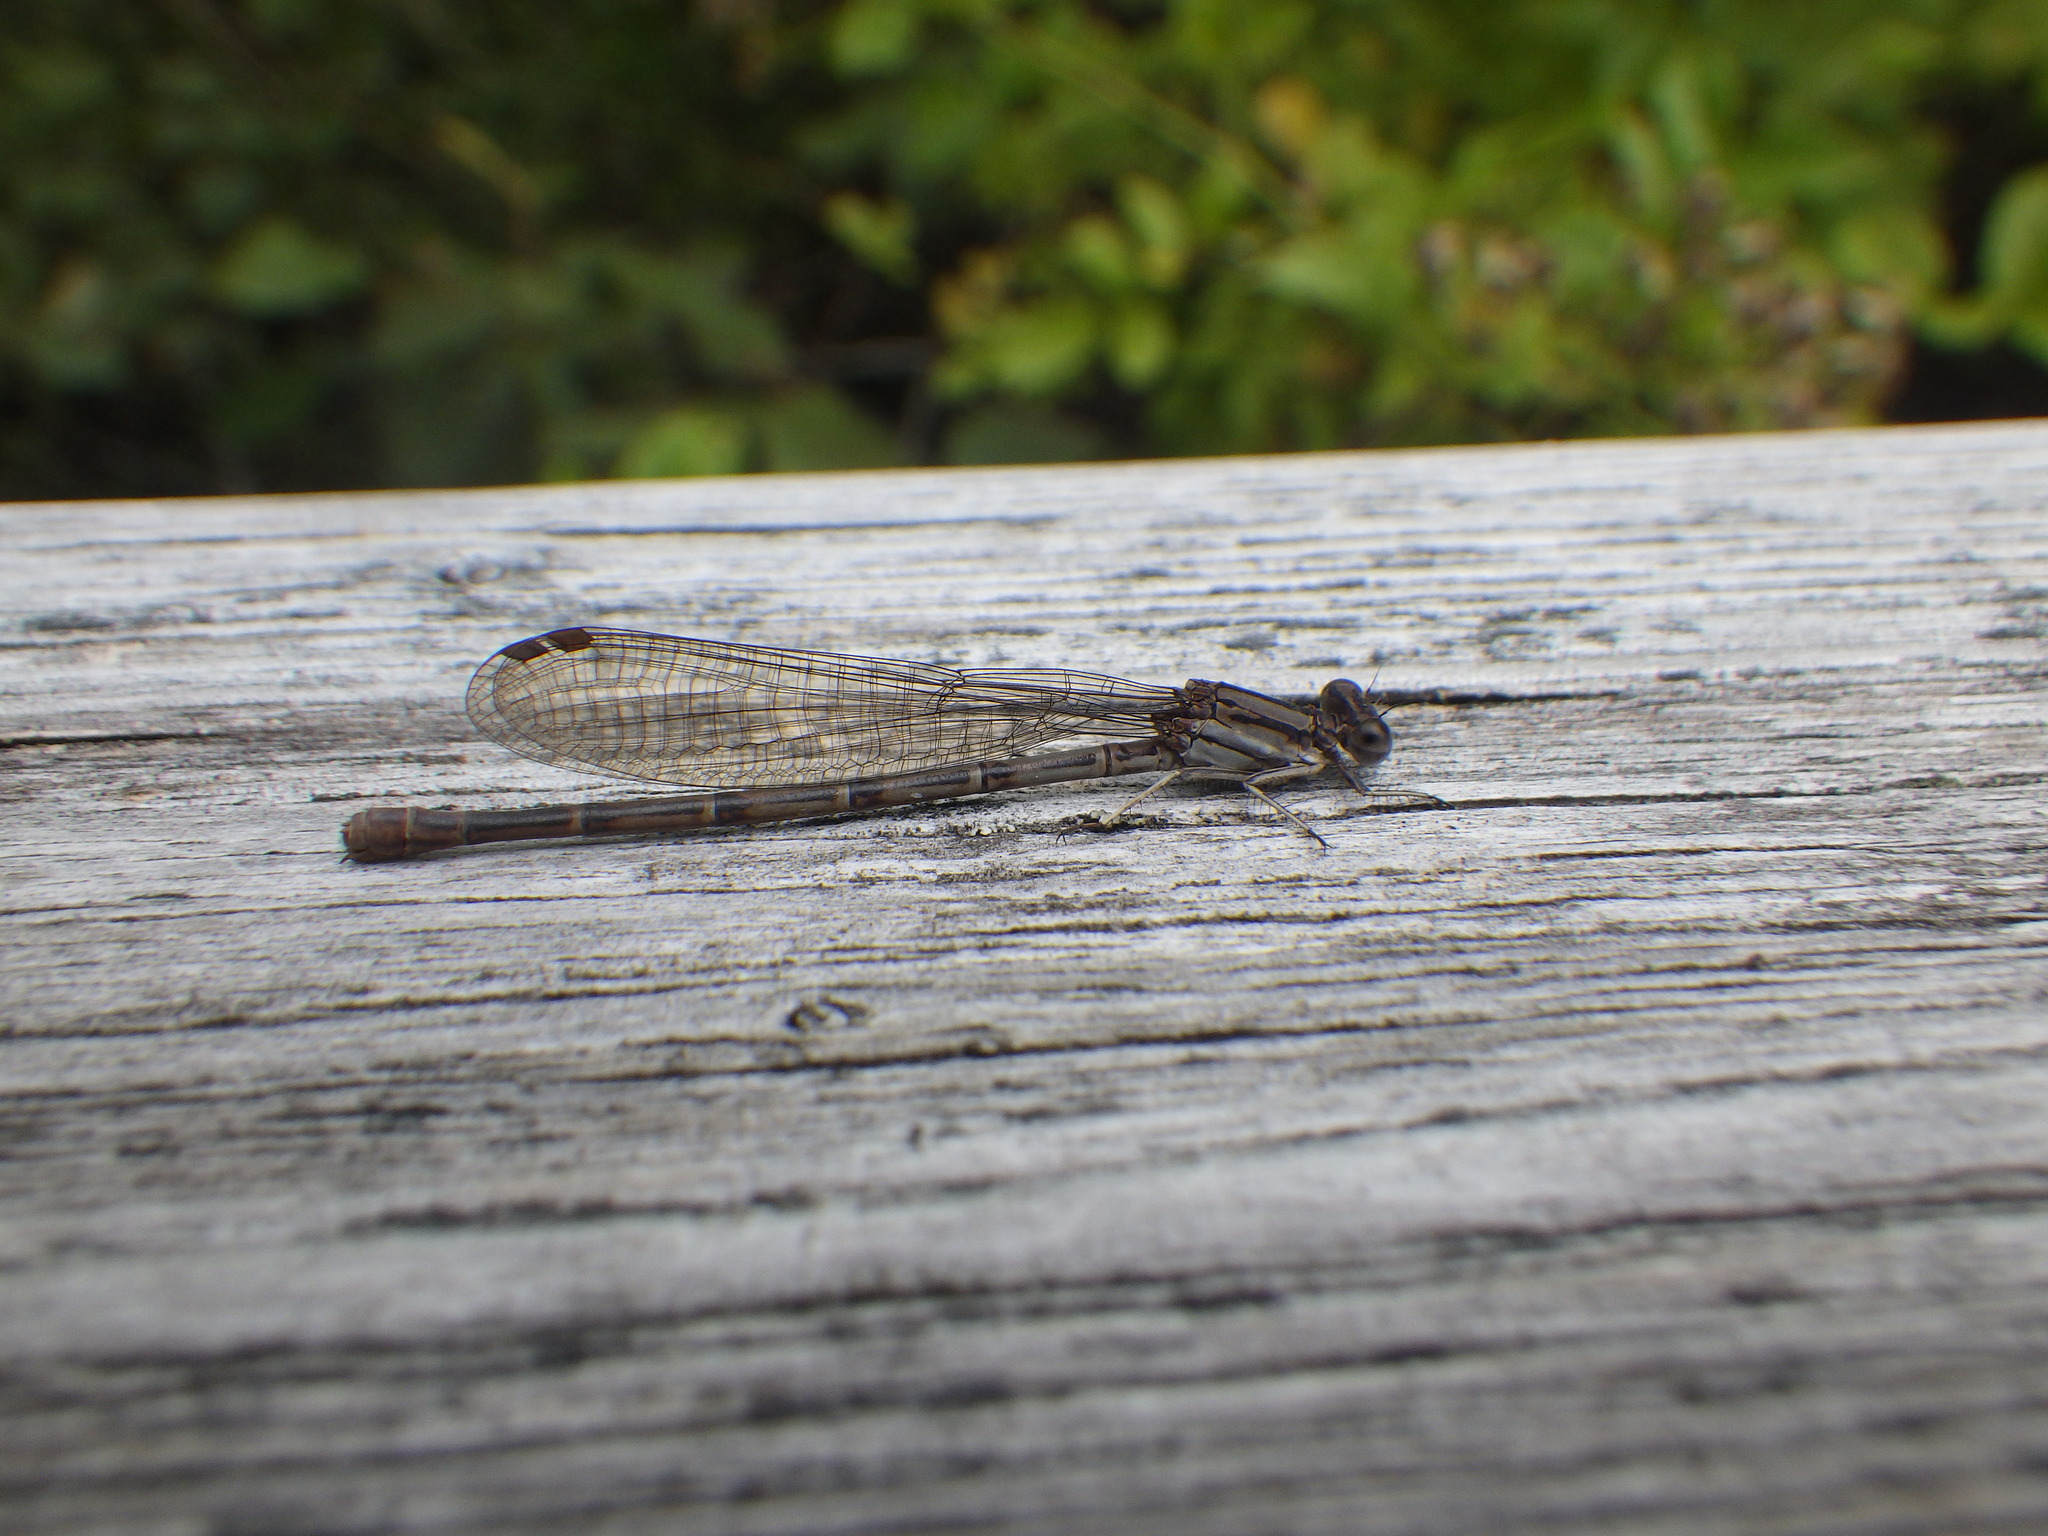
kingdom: Animalia
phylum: Arthropoda
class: Insecta
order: Odonata
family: Coenagrionidae
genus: Argia
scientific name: Argia fumipennis
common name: Variable dancer
